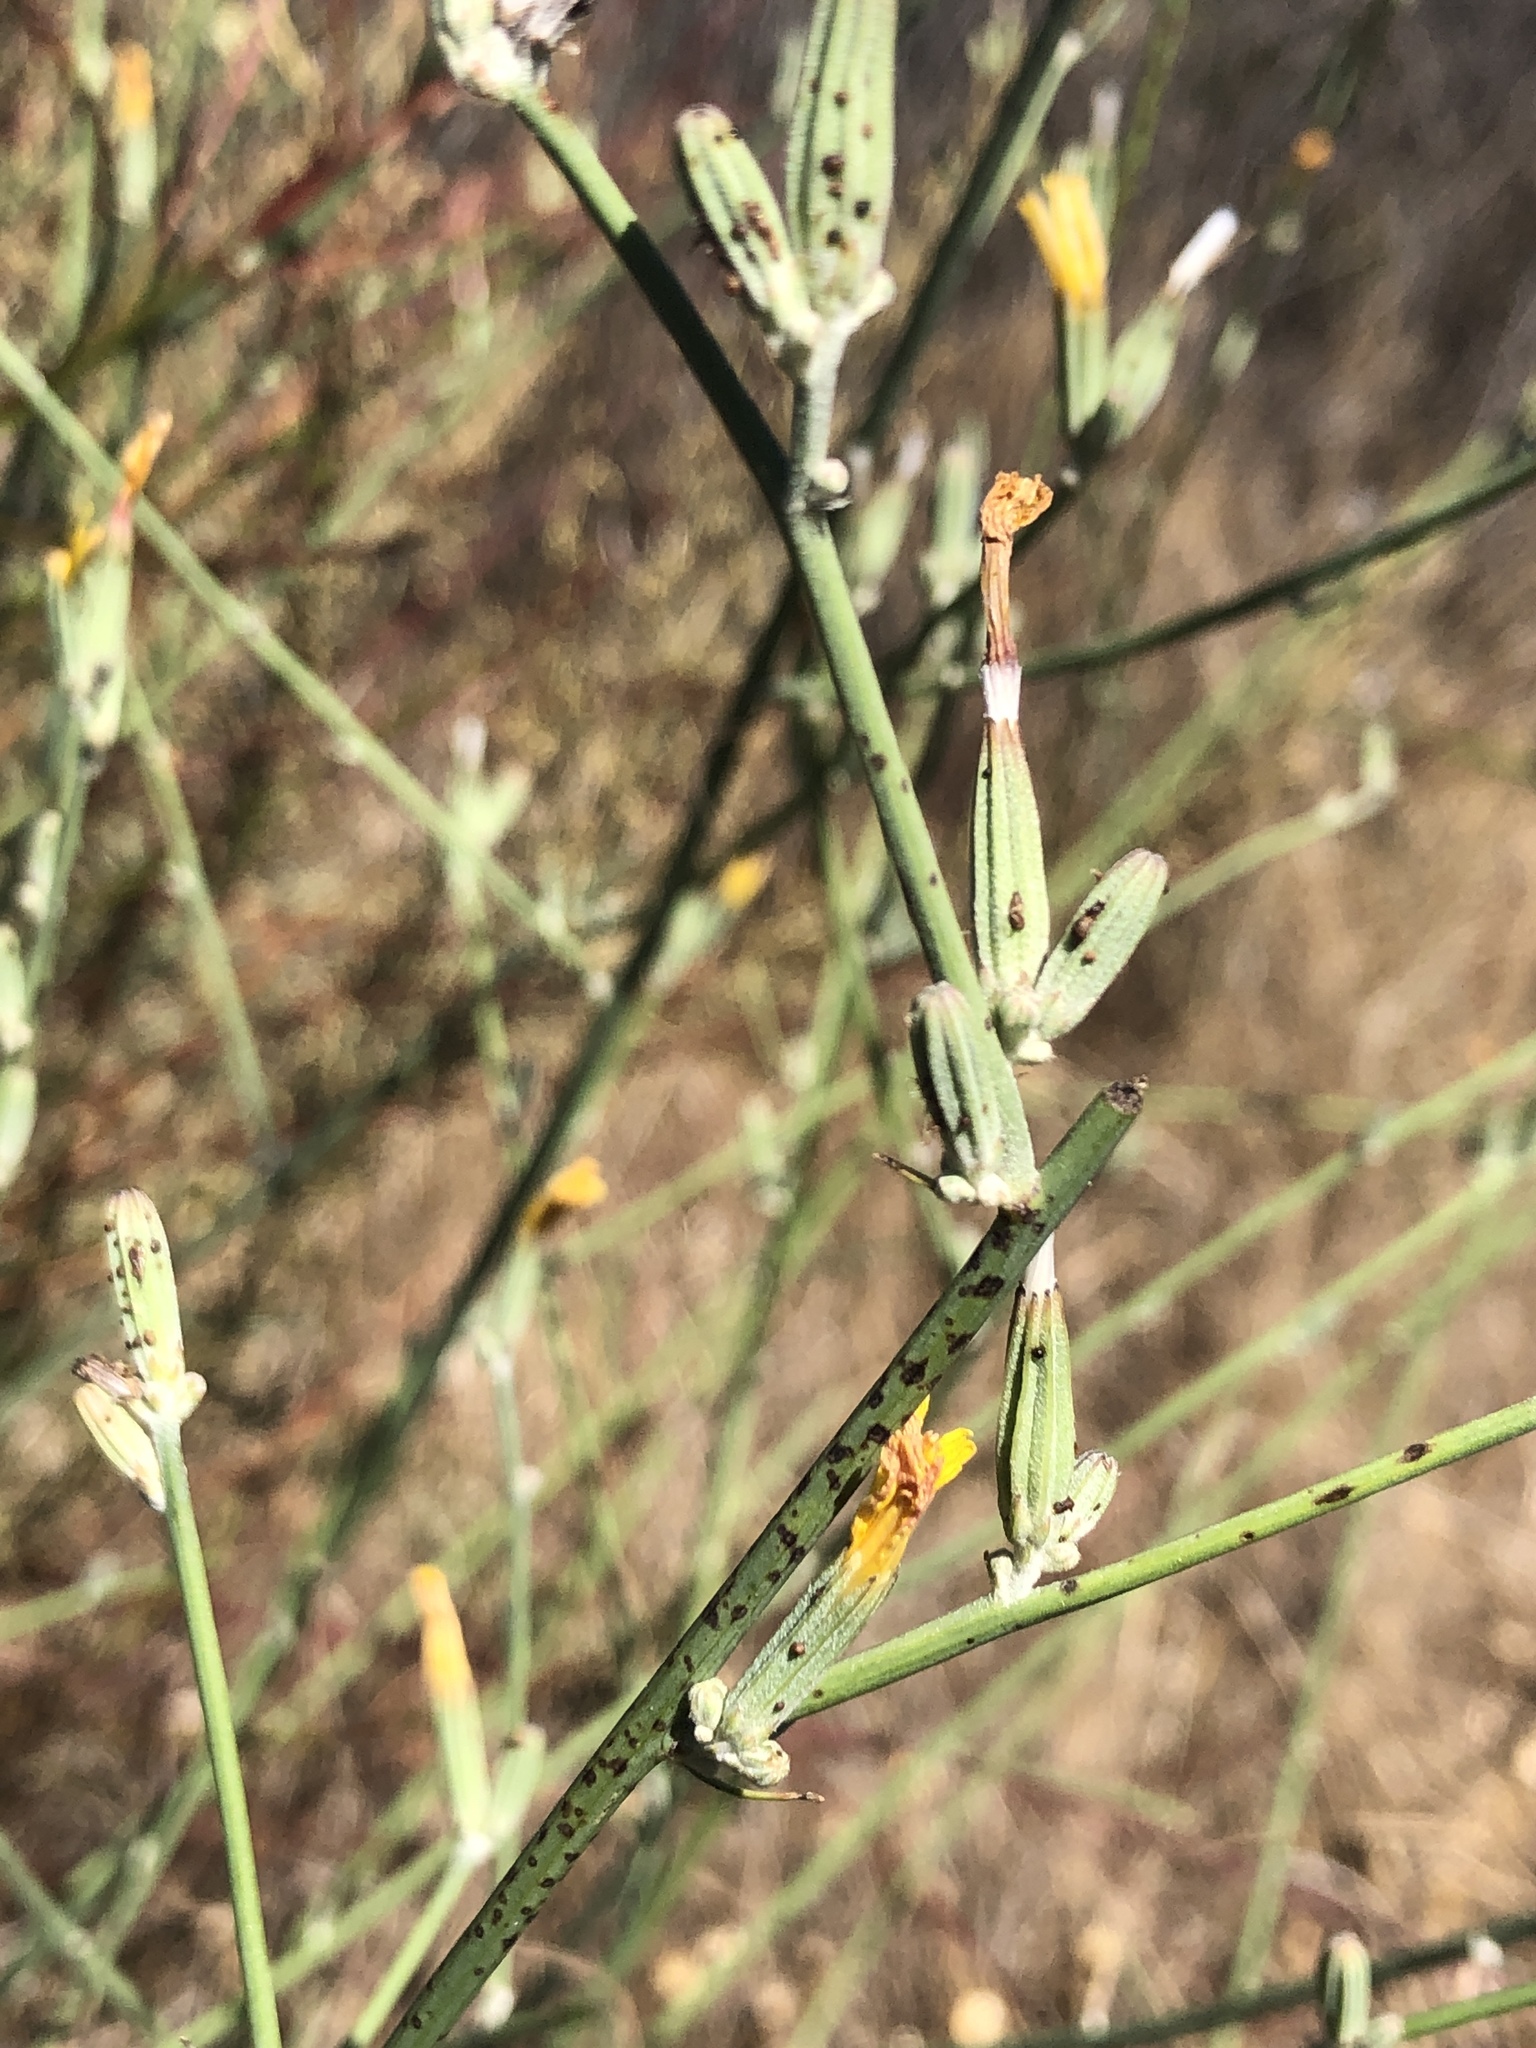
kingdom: Plantae
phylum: Tracheophyta
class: Magnoliopsida
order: Asterales
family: Asteraceae
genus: Chondrilla
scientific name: Chondrilla juncea
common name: Skeleton weed
